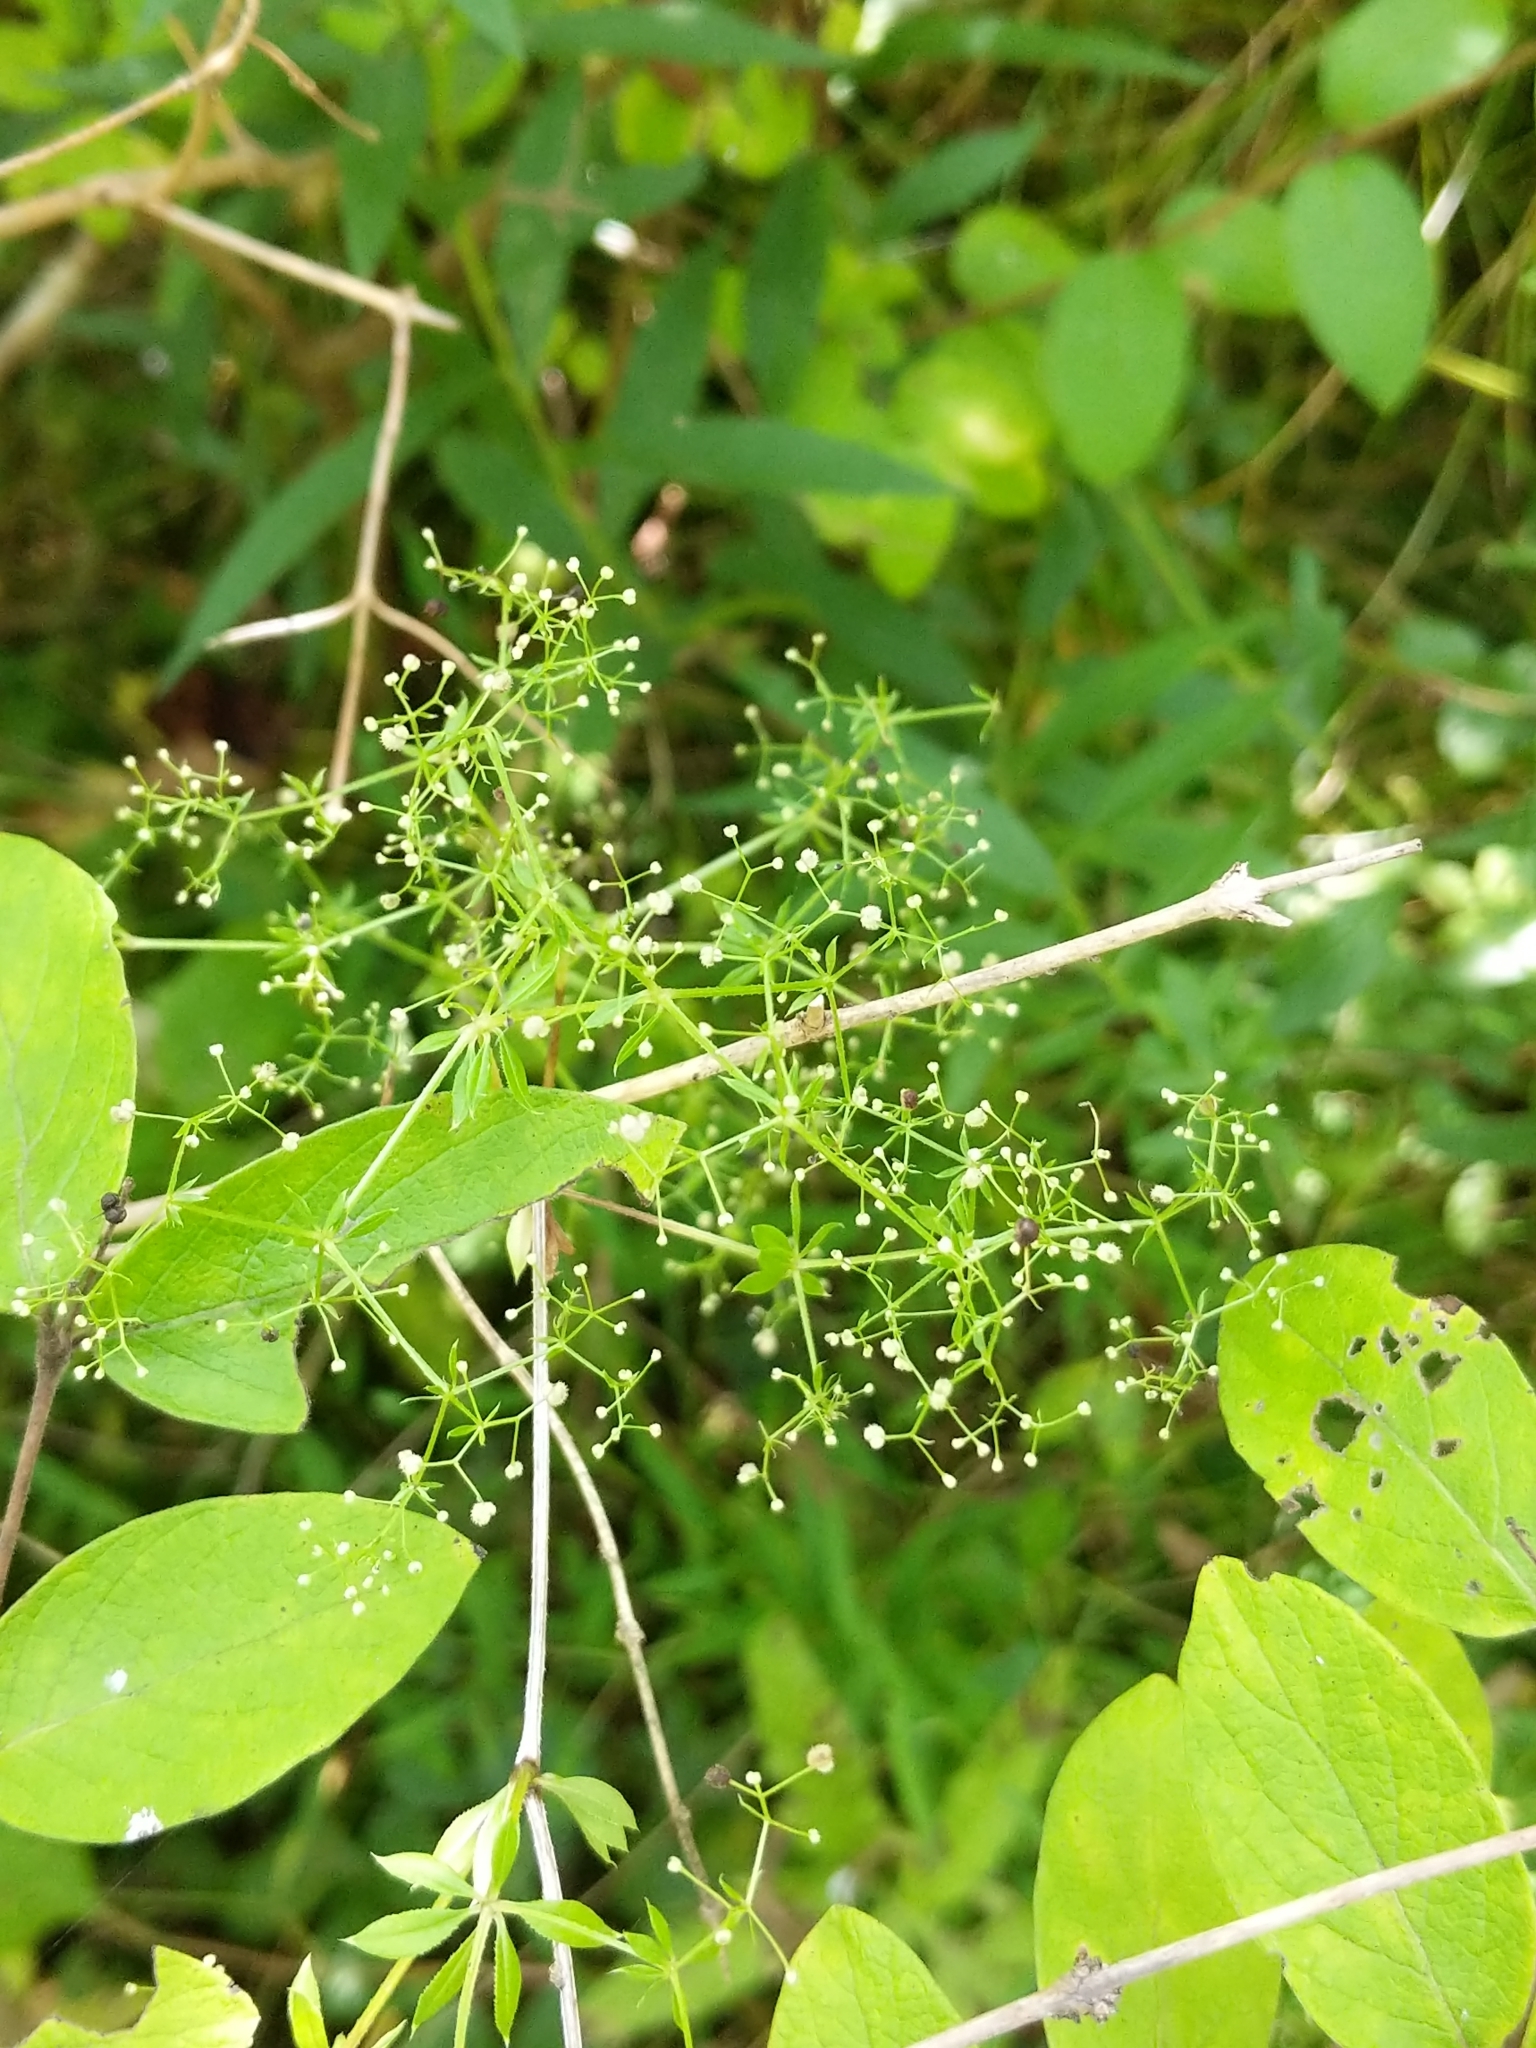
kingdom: Plantae
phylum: Tracheophyta
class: Magnoliopsida
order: Gentianales
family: Rubiaceae
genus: Galium
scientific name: Galium asprellum
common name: Rough bedstraw
